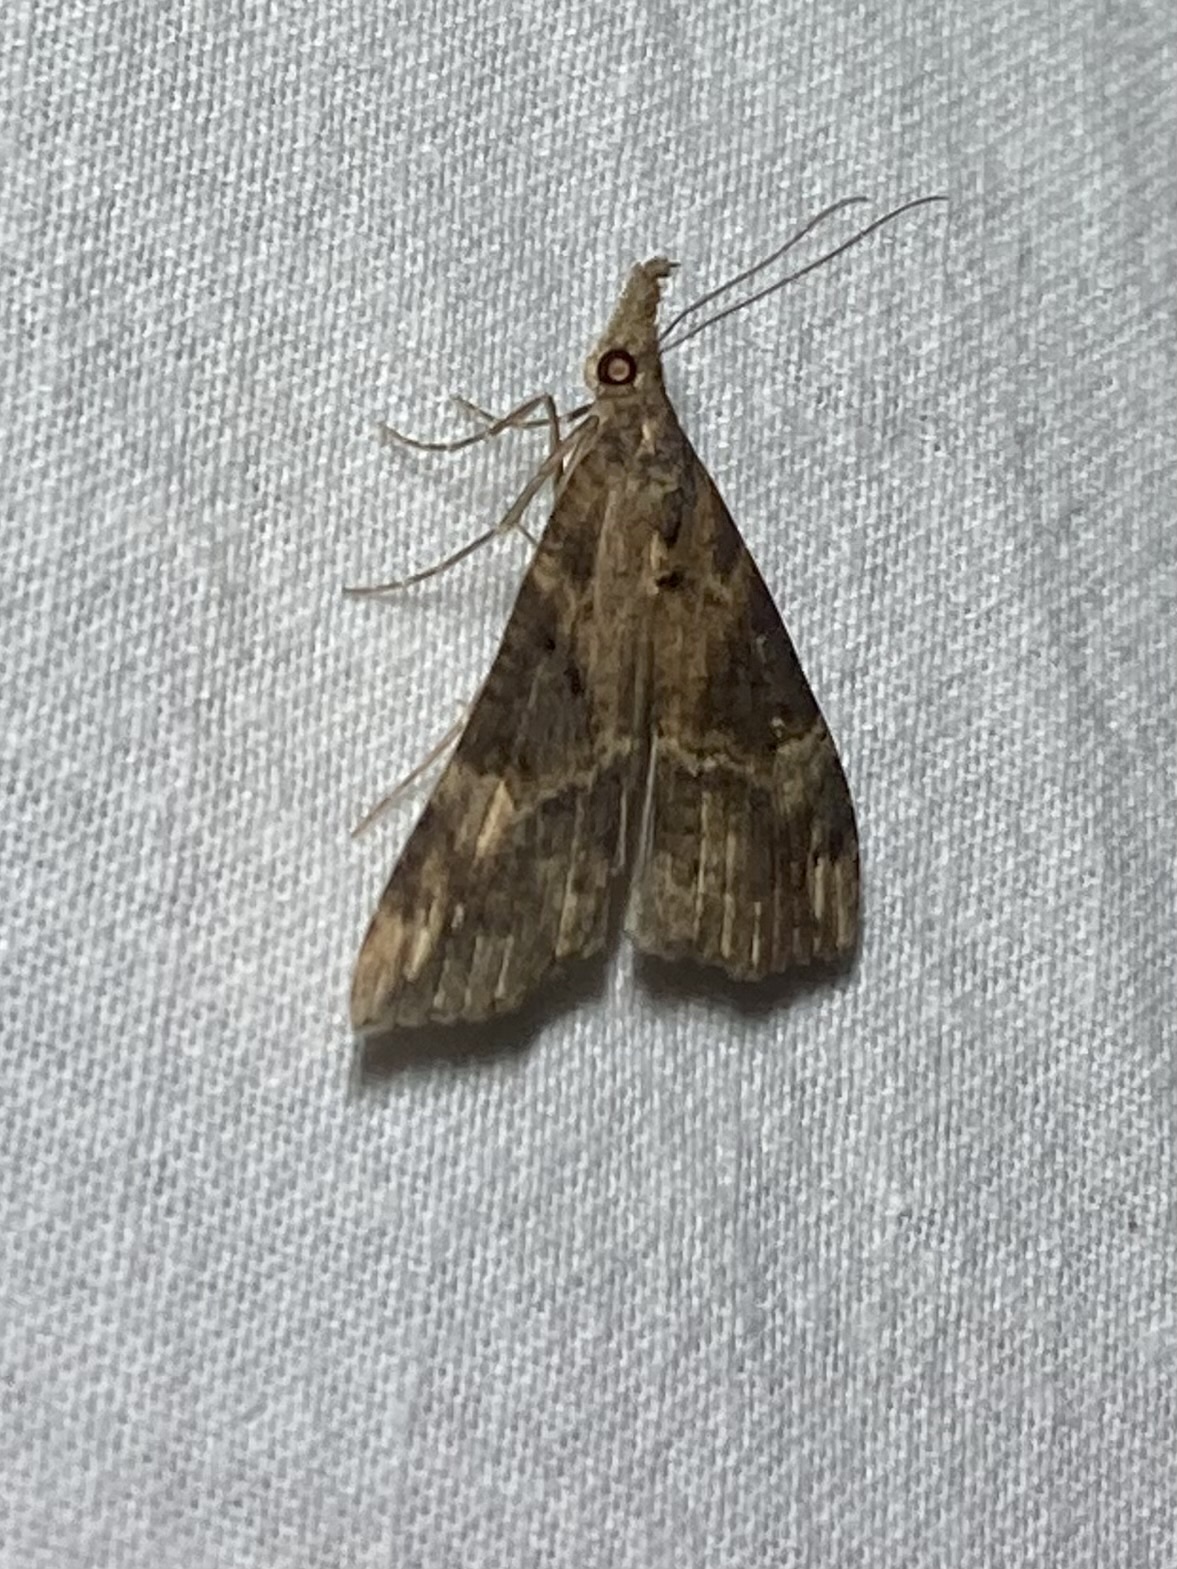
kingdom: Animalia
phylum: Arthropoda
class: Insecta
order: Lepidoptera
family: Erebidae
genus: Hypena
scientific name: Hypena obsitalis
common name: Bloxworth snout
